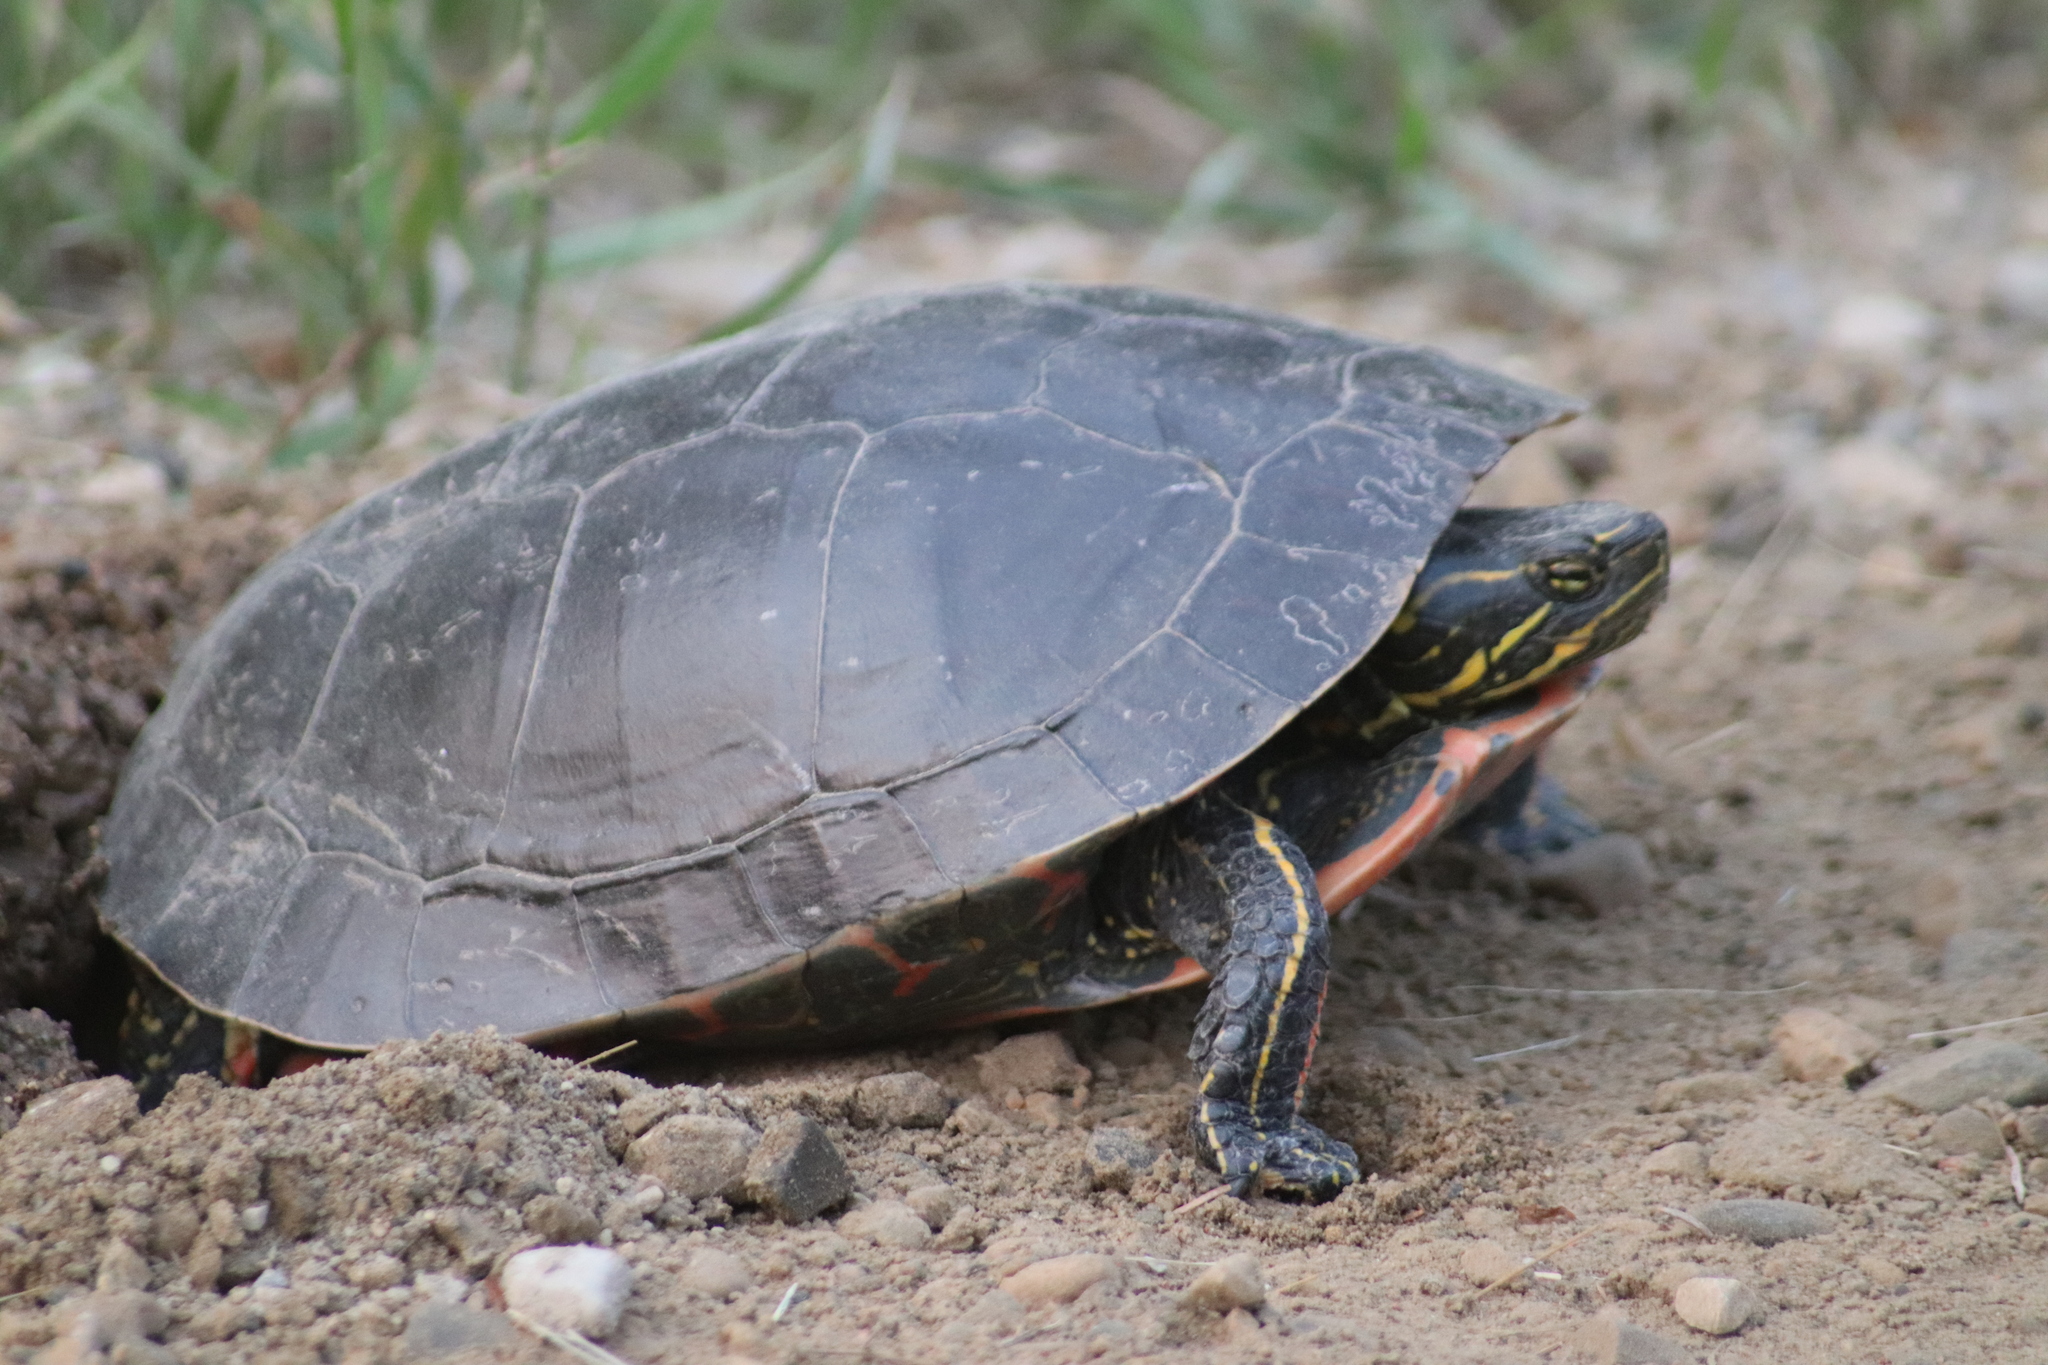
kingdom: Animalia
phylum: Chordata
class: Testudines
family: Emydidae
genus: Chrysemys
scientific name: Chrysemys picta
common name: Painted turtle
